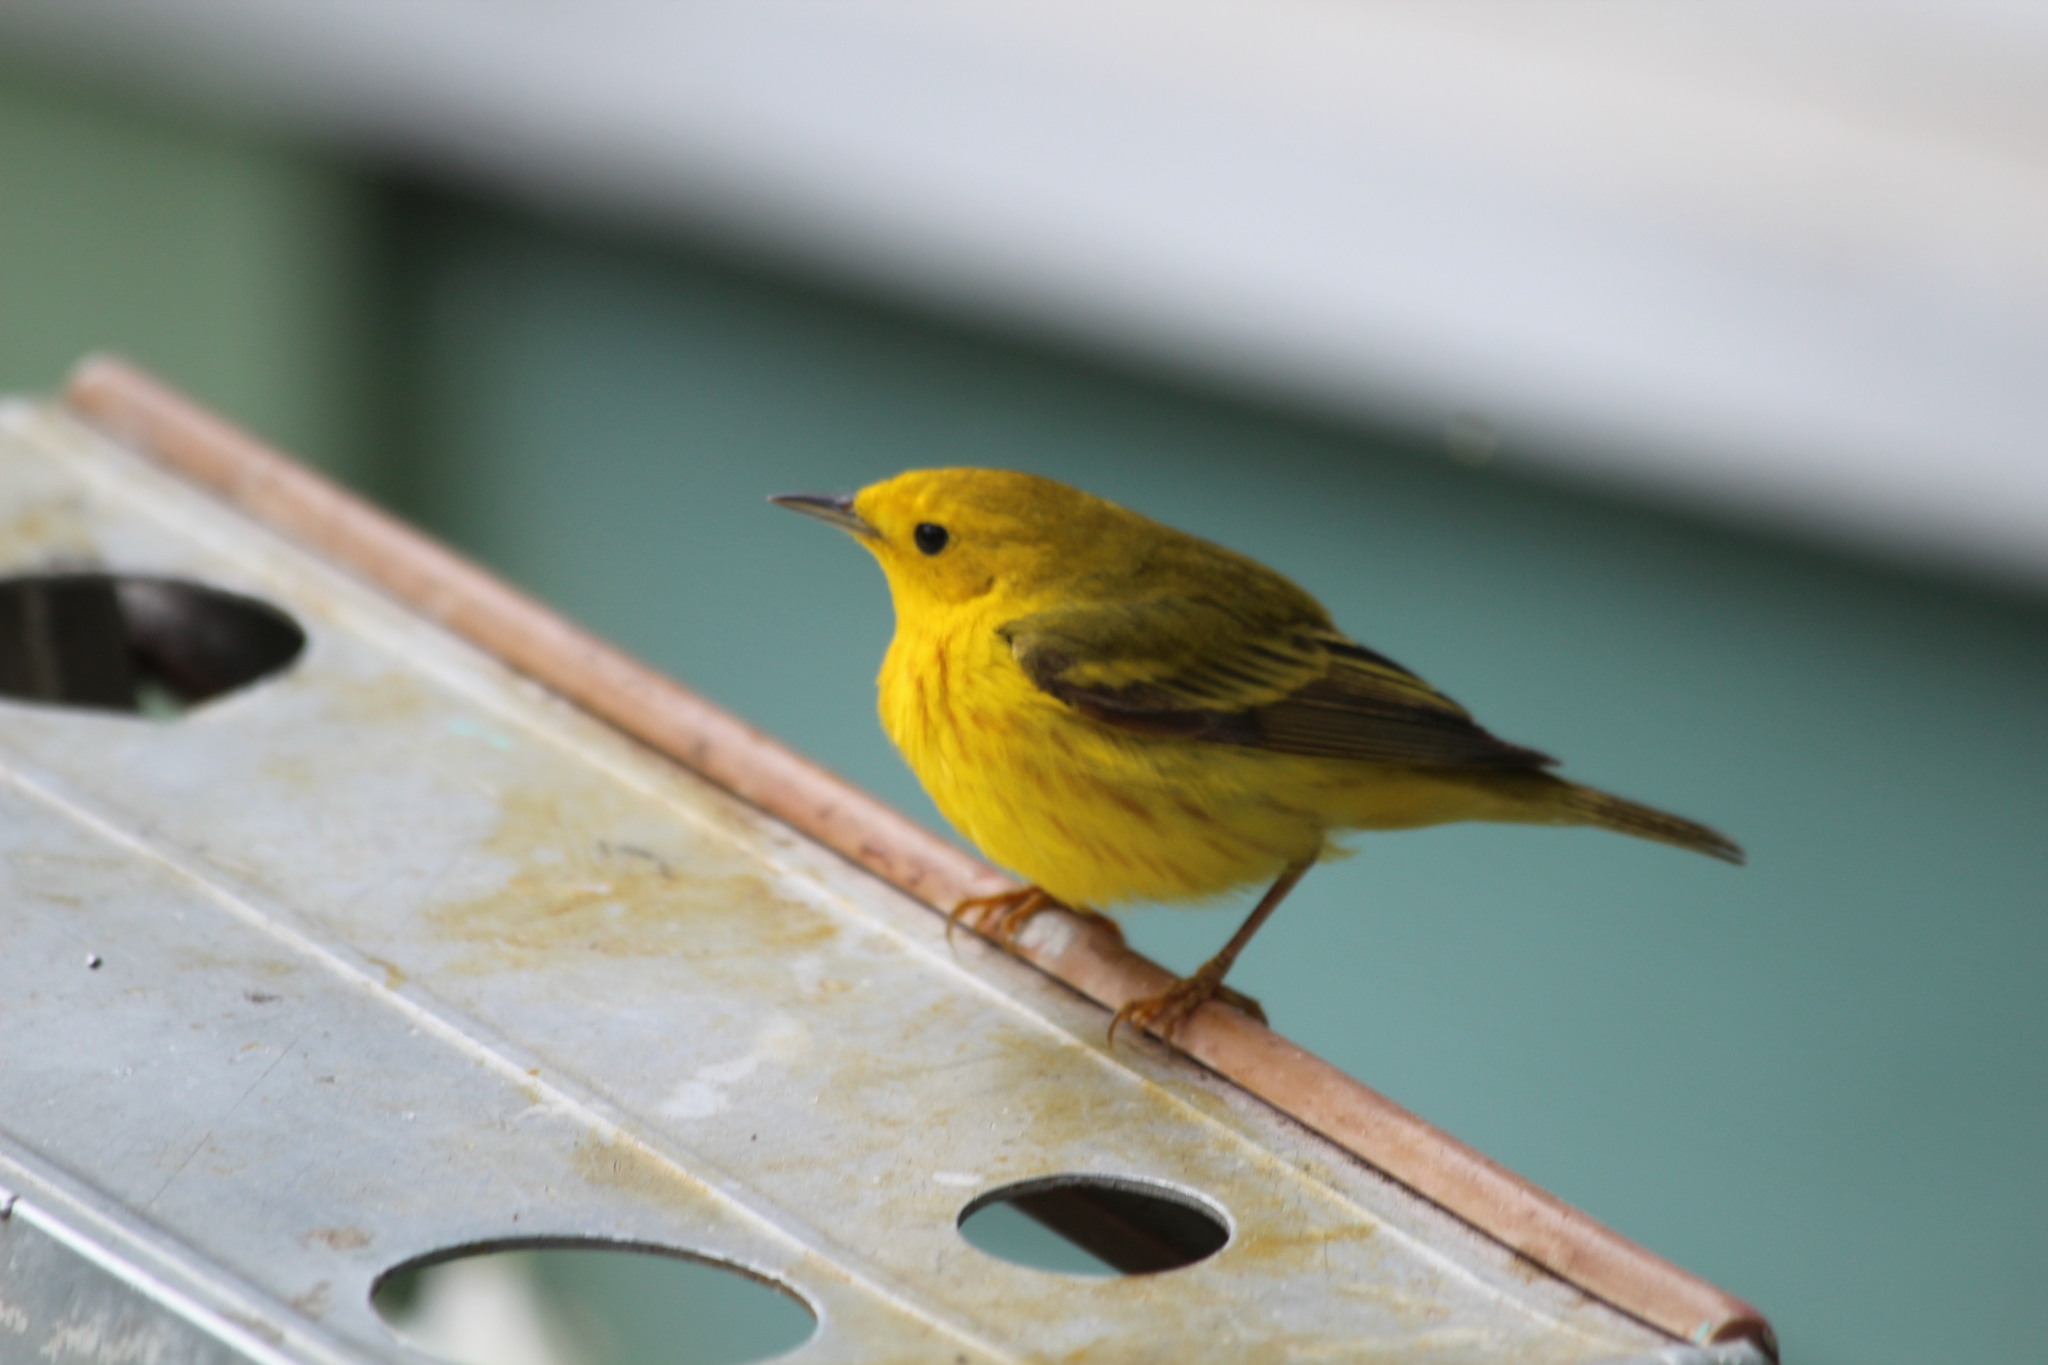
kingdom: Animalia
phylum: Chordata
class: Aves
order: Passeriformes
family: Parulidae
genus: Setophaga
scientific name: Setophaga petechia
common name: Yellow warbler
